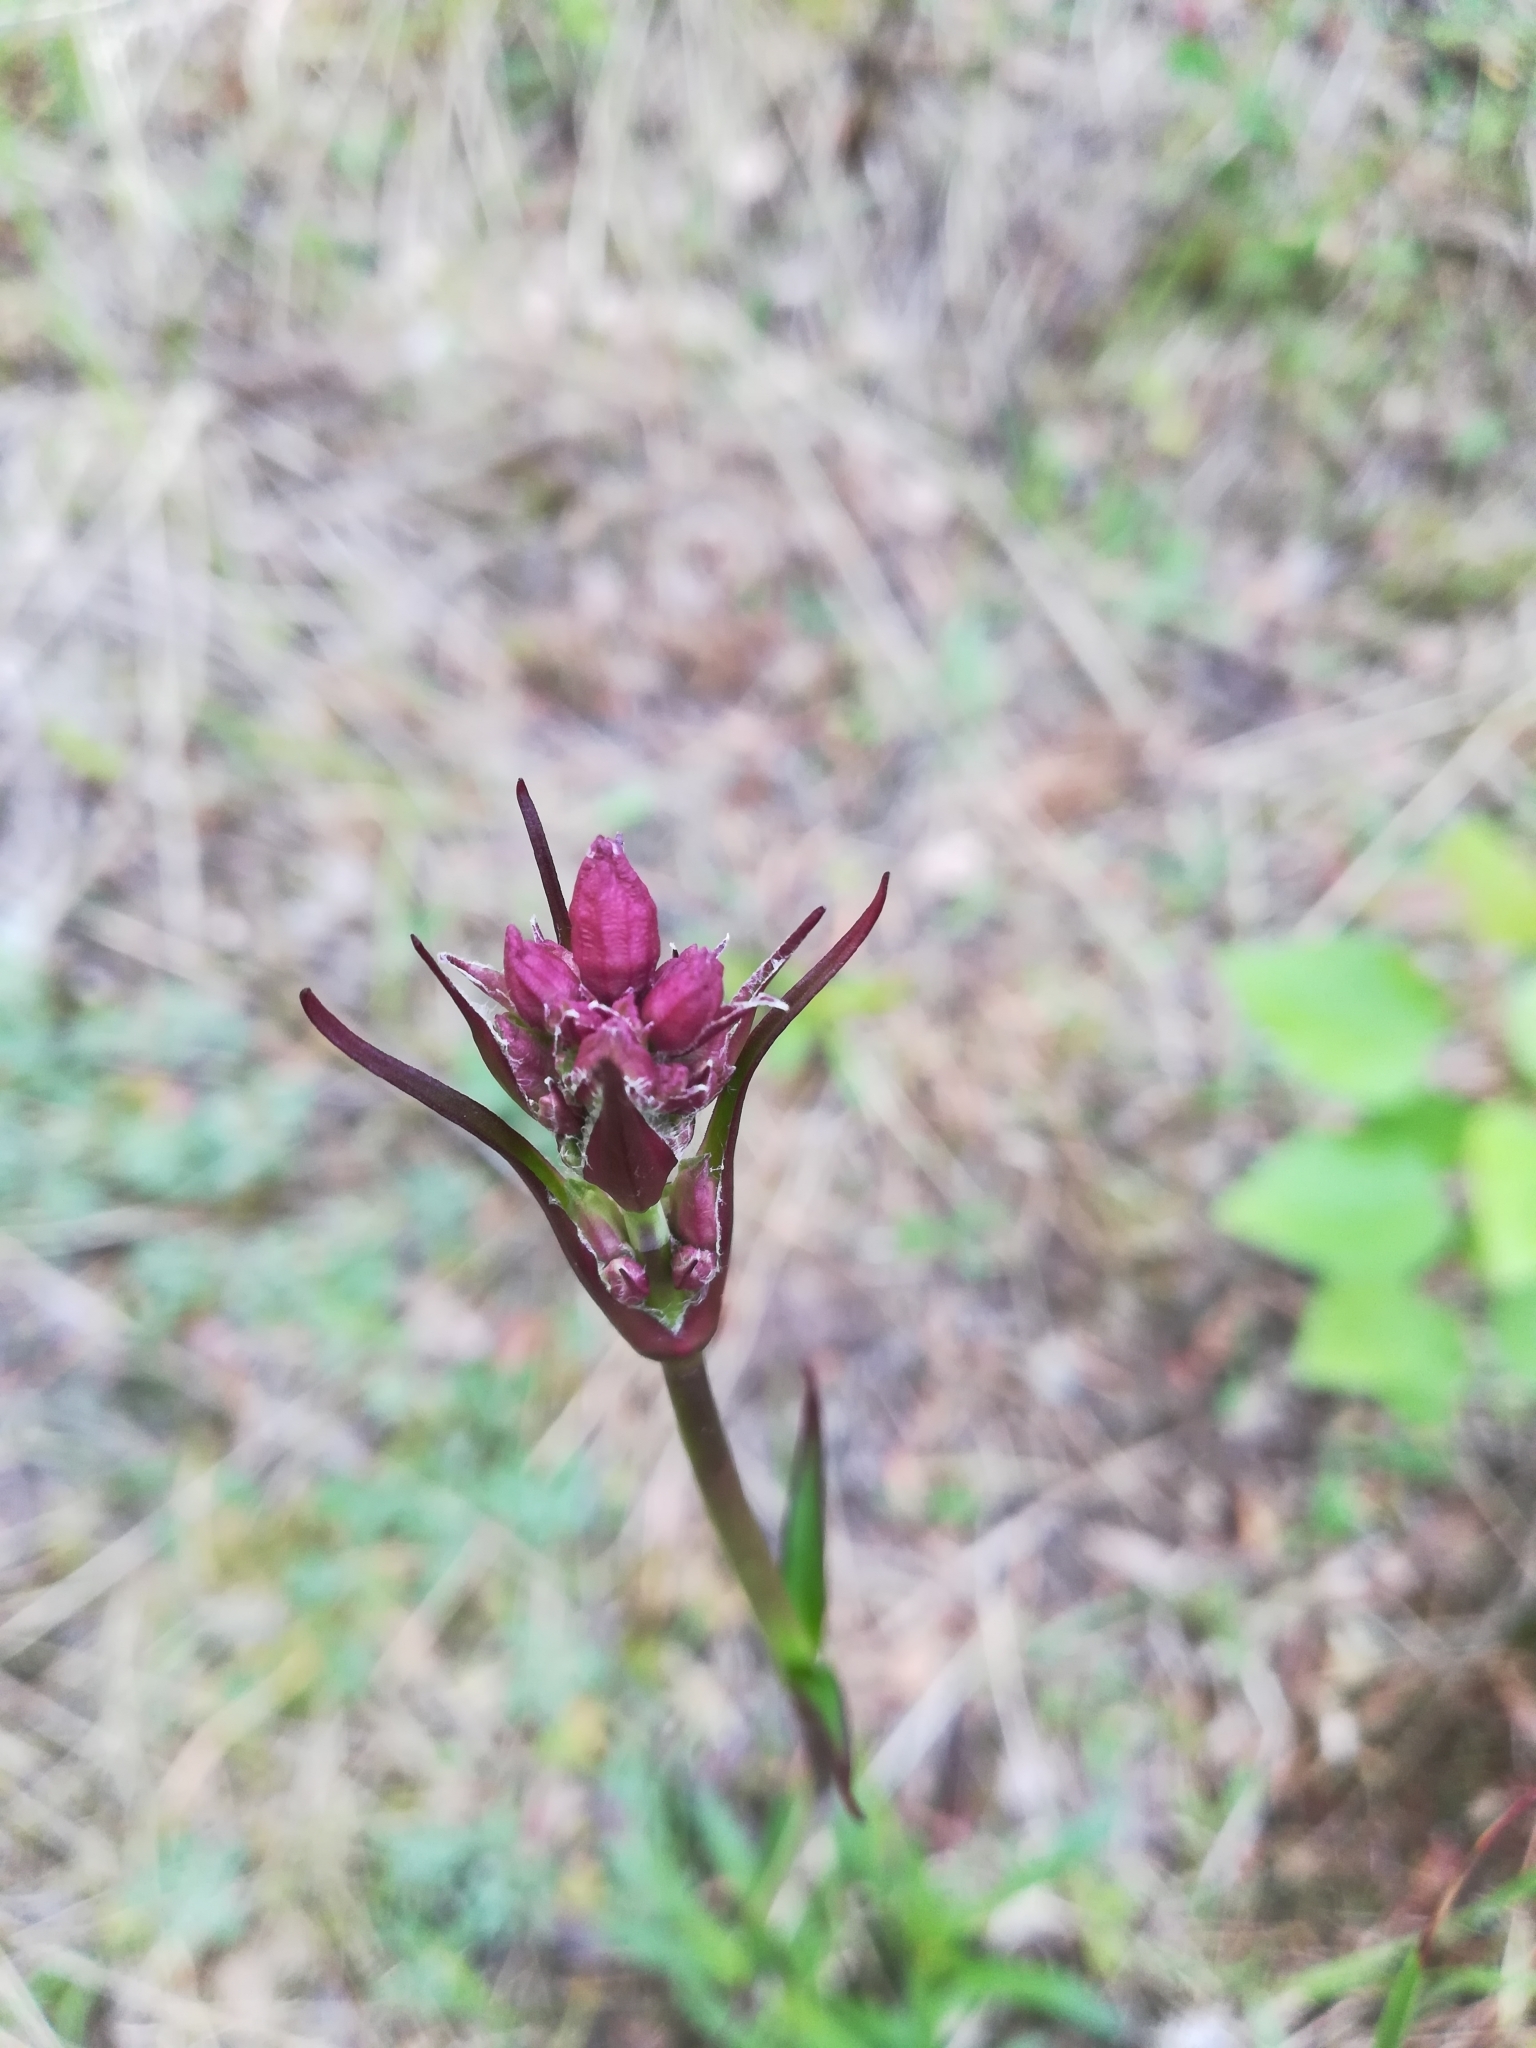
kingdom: Plantae
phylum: Tracheophyta
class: Magnoliopsida
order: Caryophyllales
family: Caryophyllaceae
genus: Viscaria
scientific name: Viscaria vulgaris
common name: Clammy campion
